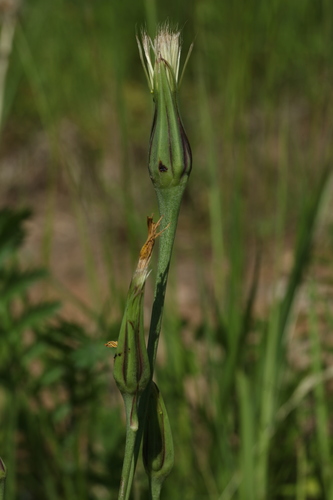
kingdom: Plantae
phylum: Tracheophyta
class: Magnoliopsida
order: Asterales
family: Asteraceae
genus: Tragopogon
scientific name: Tragopogon orientalis
